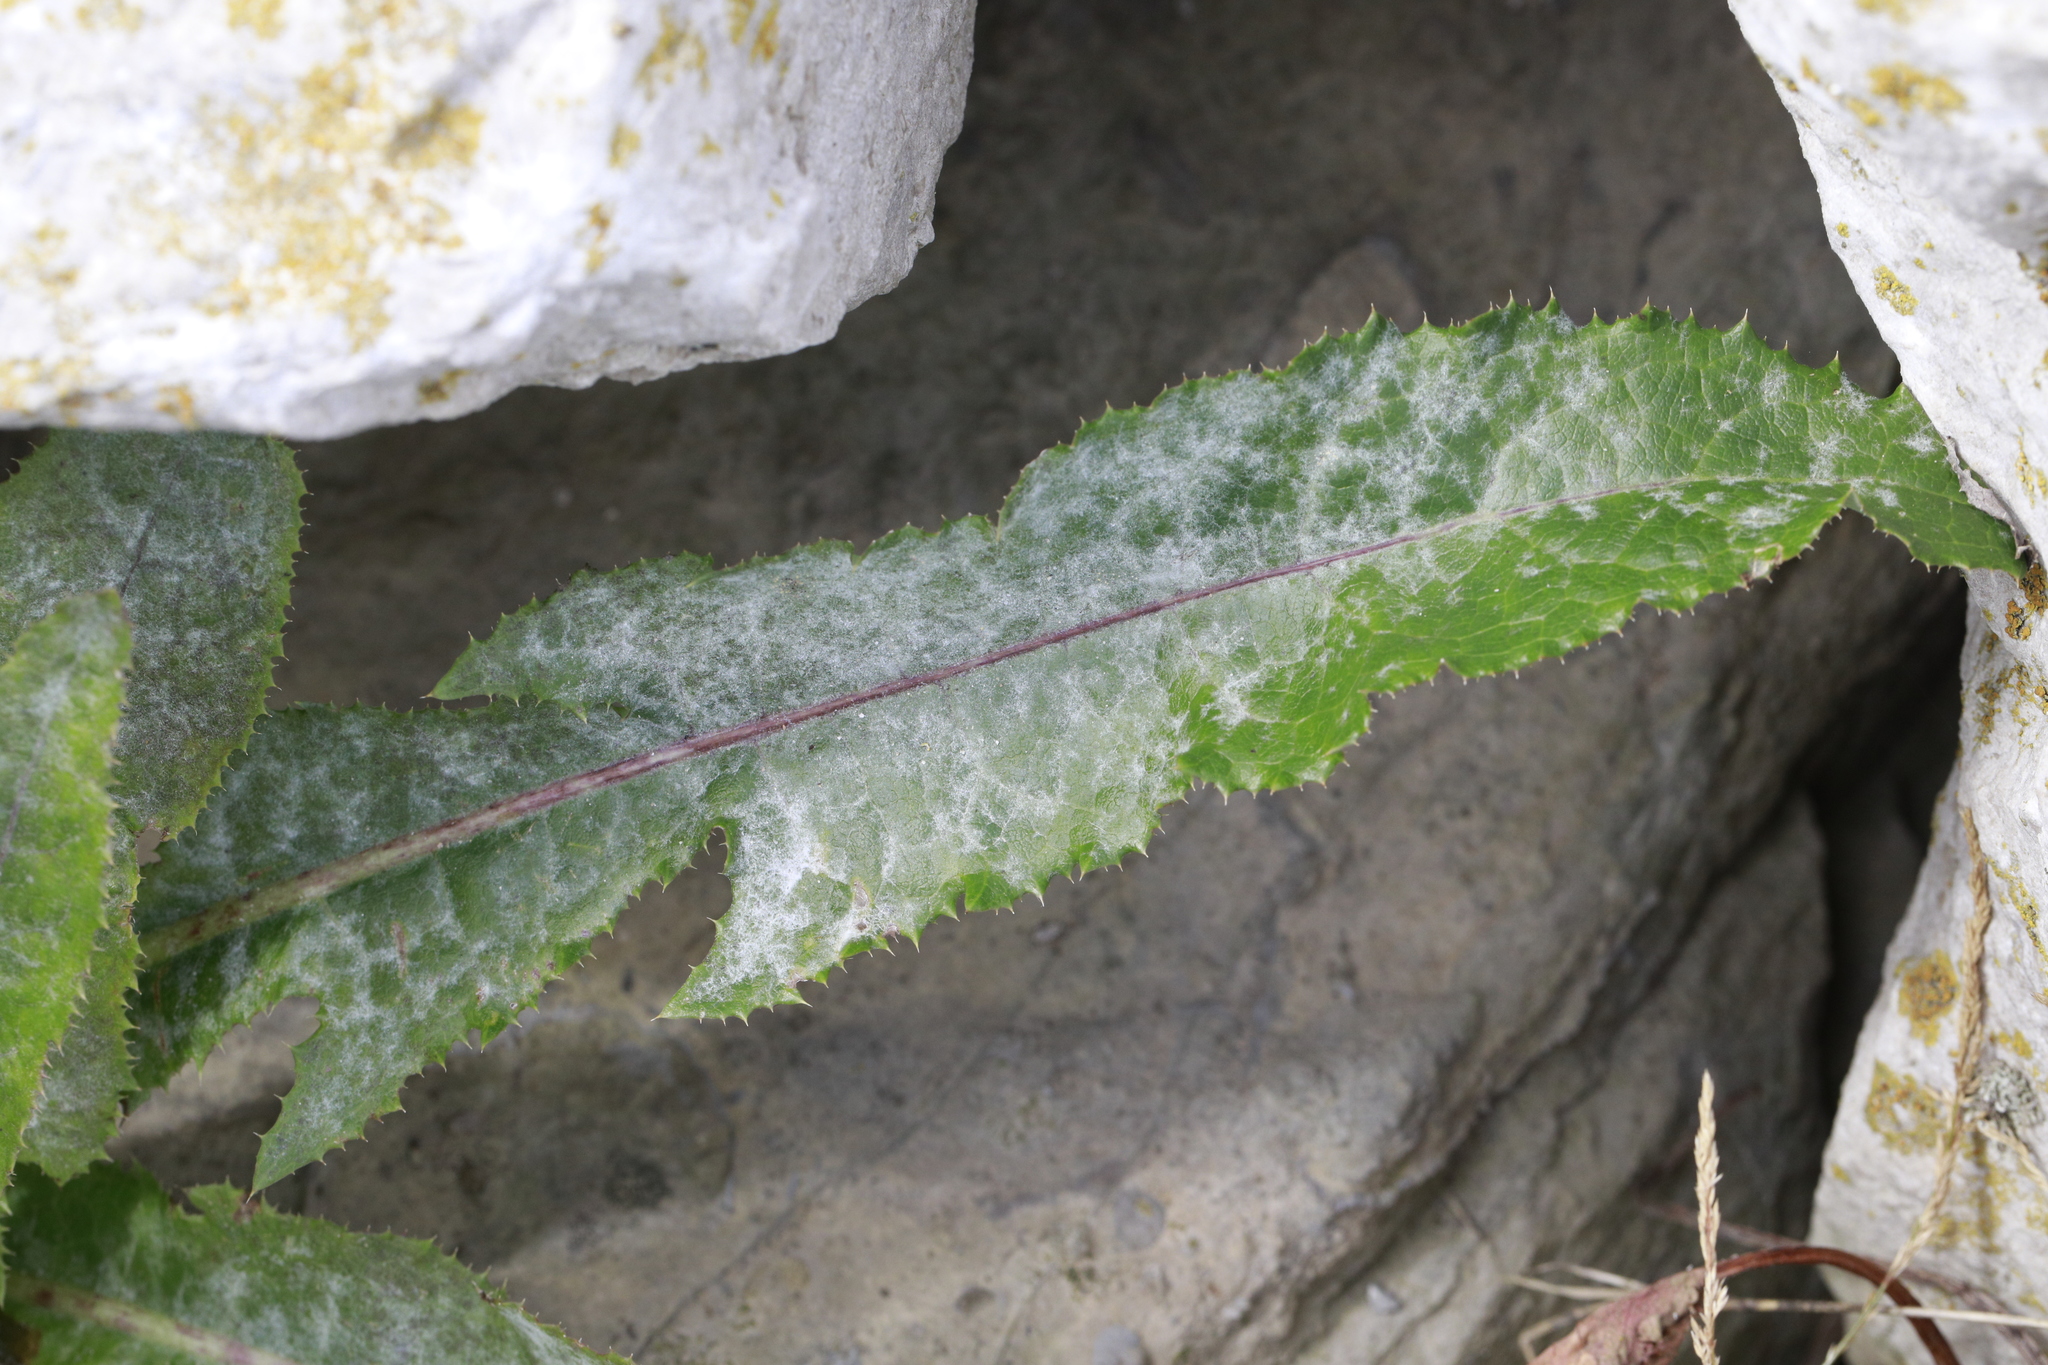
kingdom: Fungi
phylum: Ascomycota
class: Leotiomycetes
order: Helotiales
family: Erysiphaceae
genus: Golovinomyces
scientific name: Golovinomyces sonchicola
